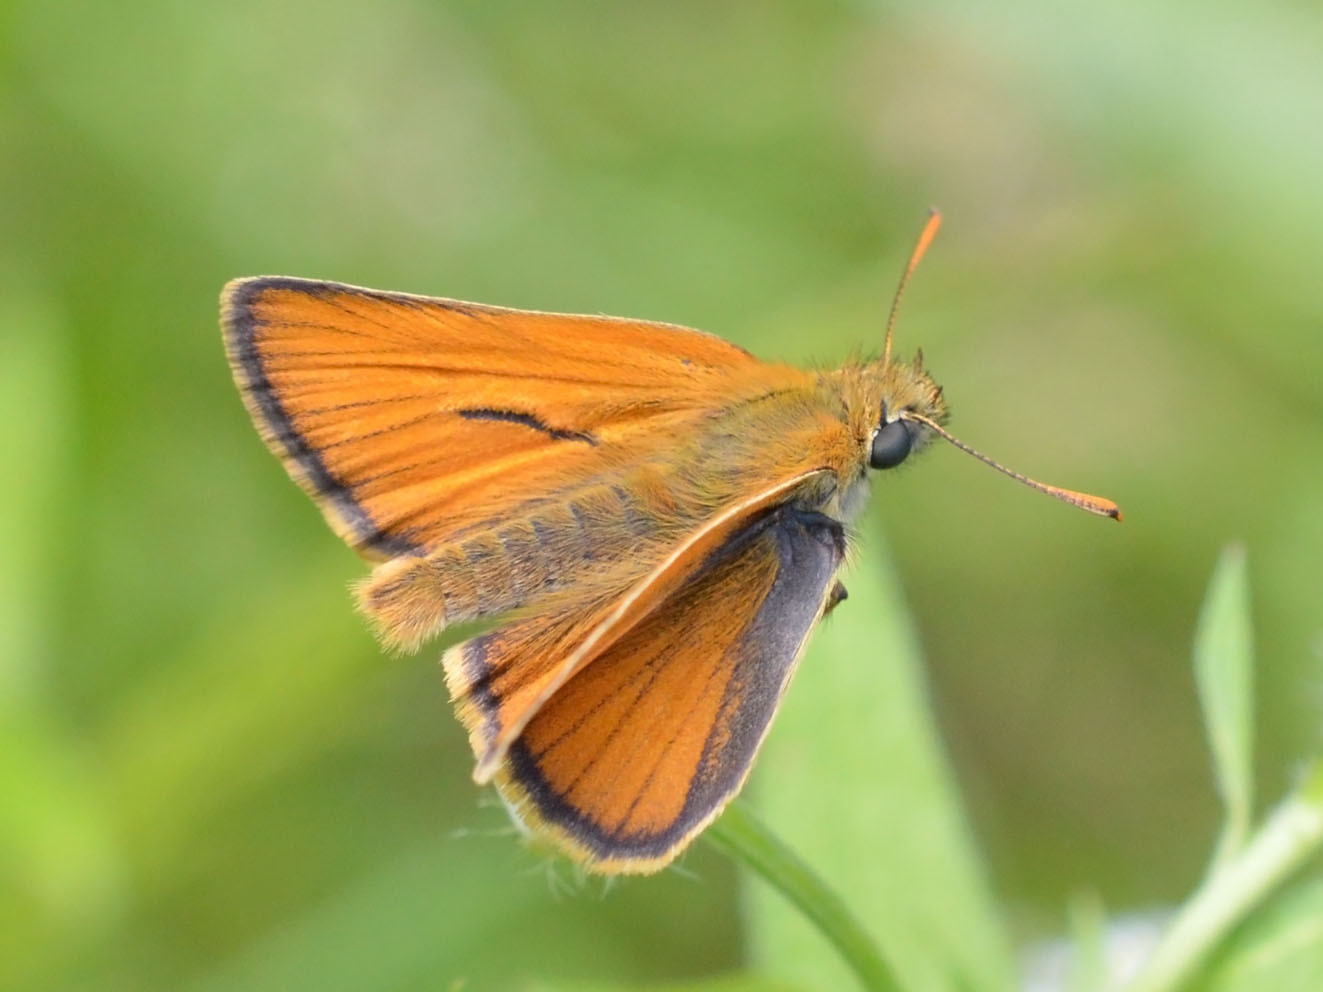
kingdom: Animalia
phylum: Arthropoda
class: Insecta
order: Lepidoptera
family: Hesperiidae
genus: Thymelicus
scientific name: Thymelicus sylvestris
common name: Small skipper
